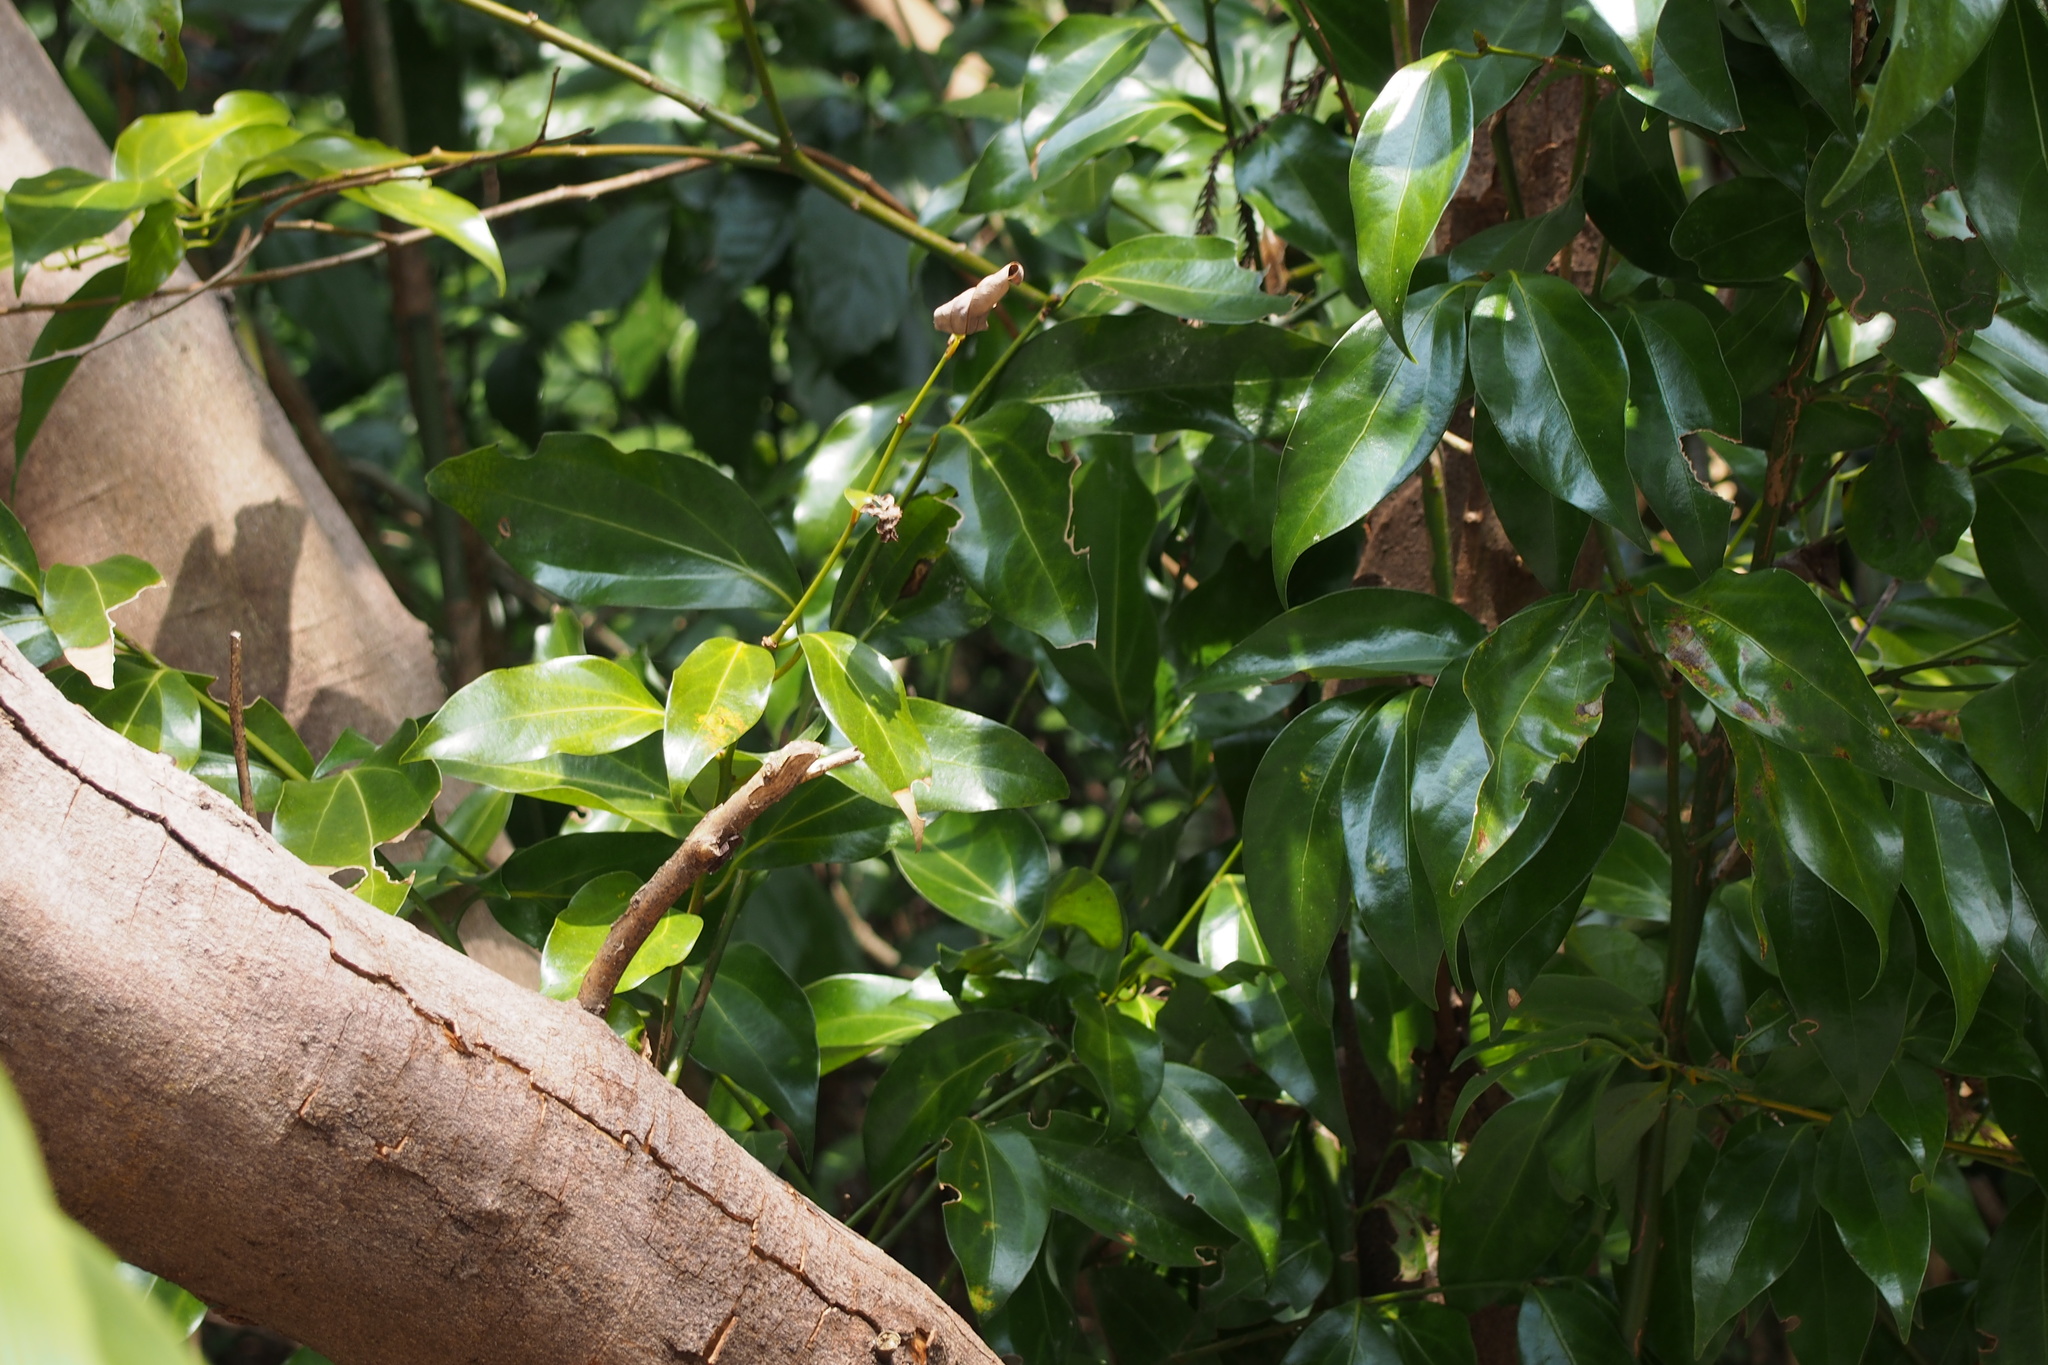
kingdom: Plantae
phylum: Tracheophyta
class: Magnoliopsida
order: Laurales
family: Lauraceae
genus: Cinnamomum
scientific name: Cinnamomum chekiangense
